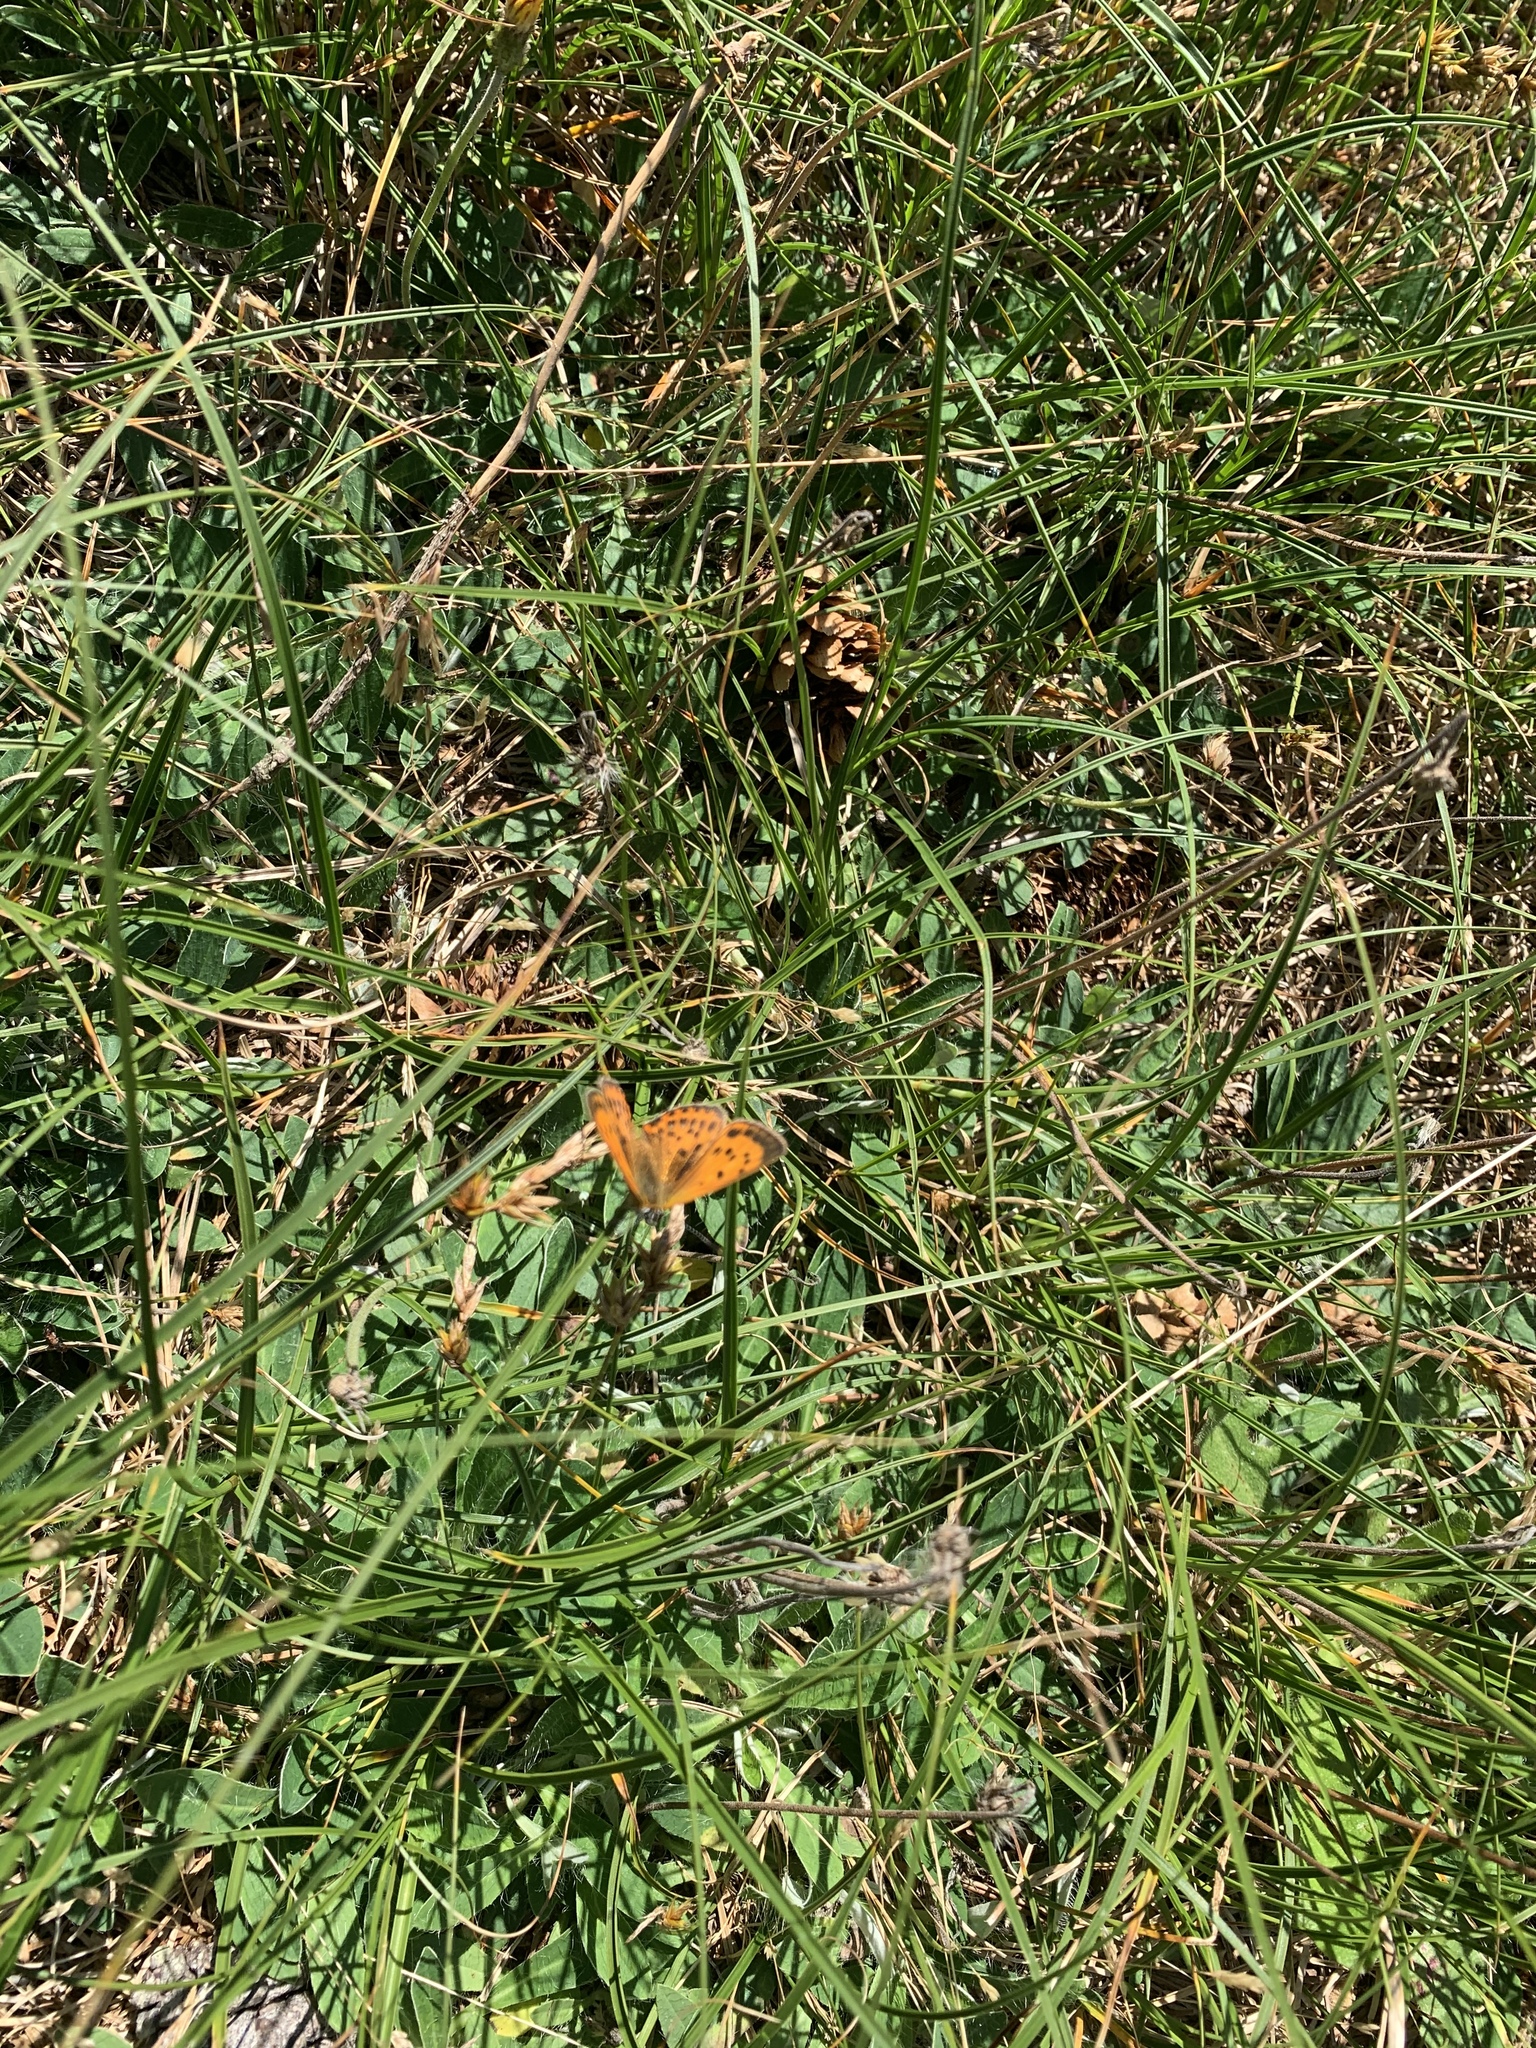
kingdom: Animalia
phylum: Arthropoda
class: Insecta
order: Lepidoptera
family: Lycaenidae
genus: Lycaena
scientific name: Lycaena virgaureae
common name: Scarce copper
